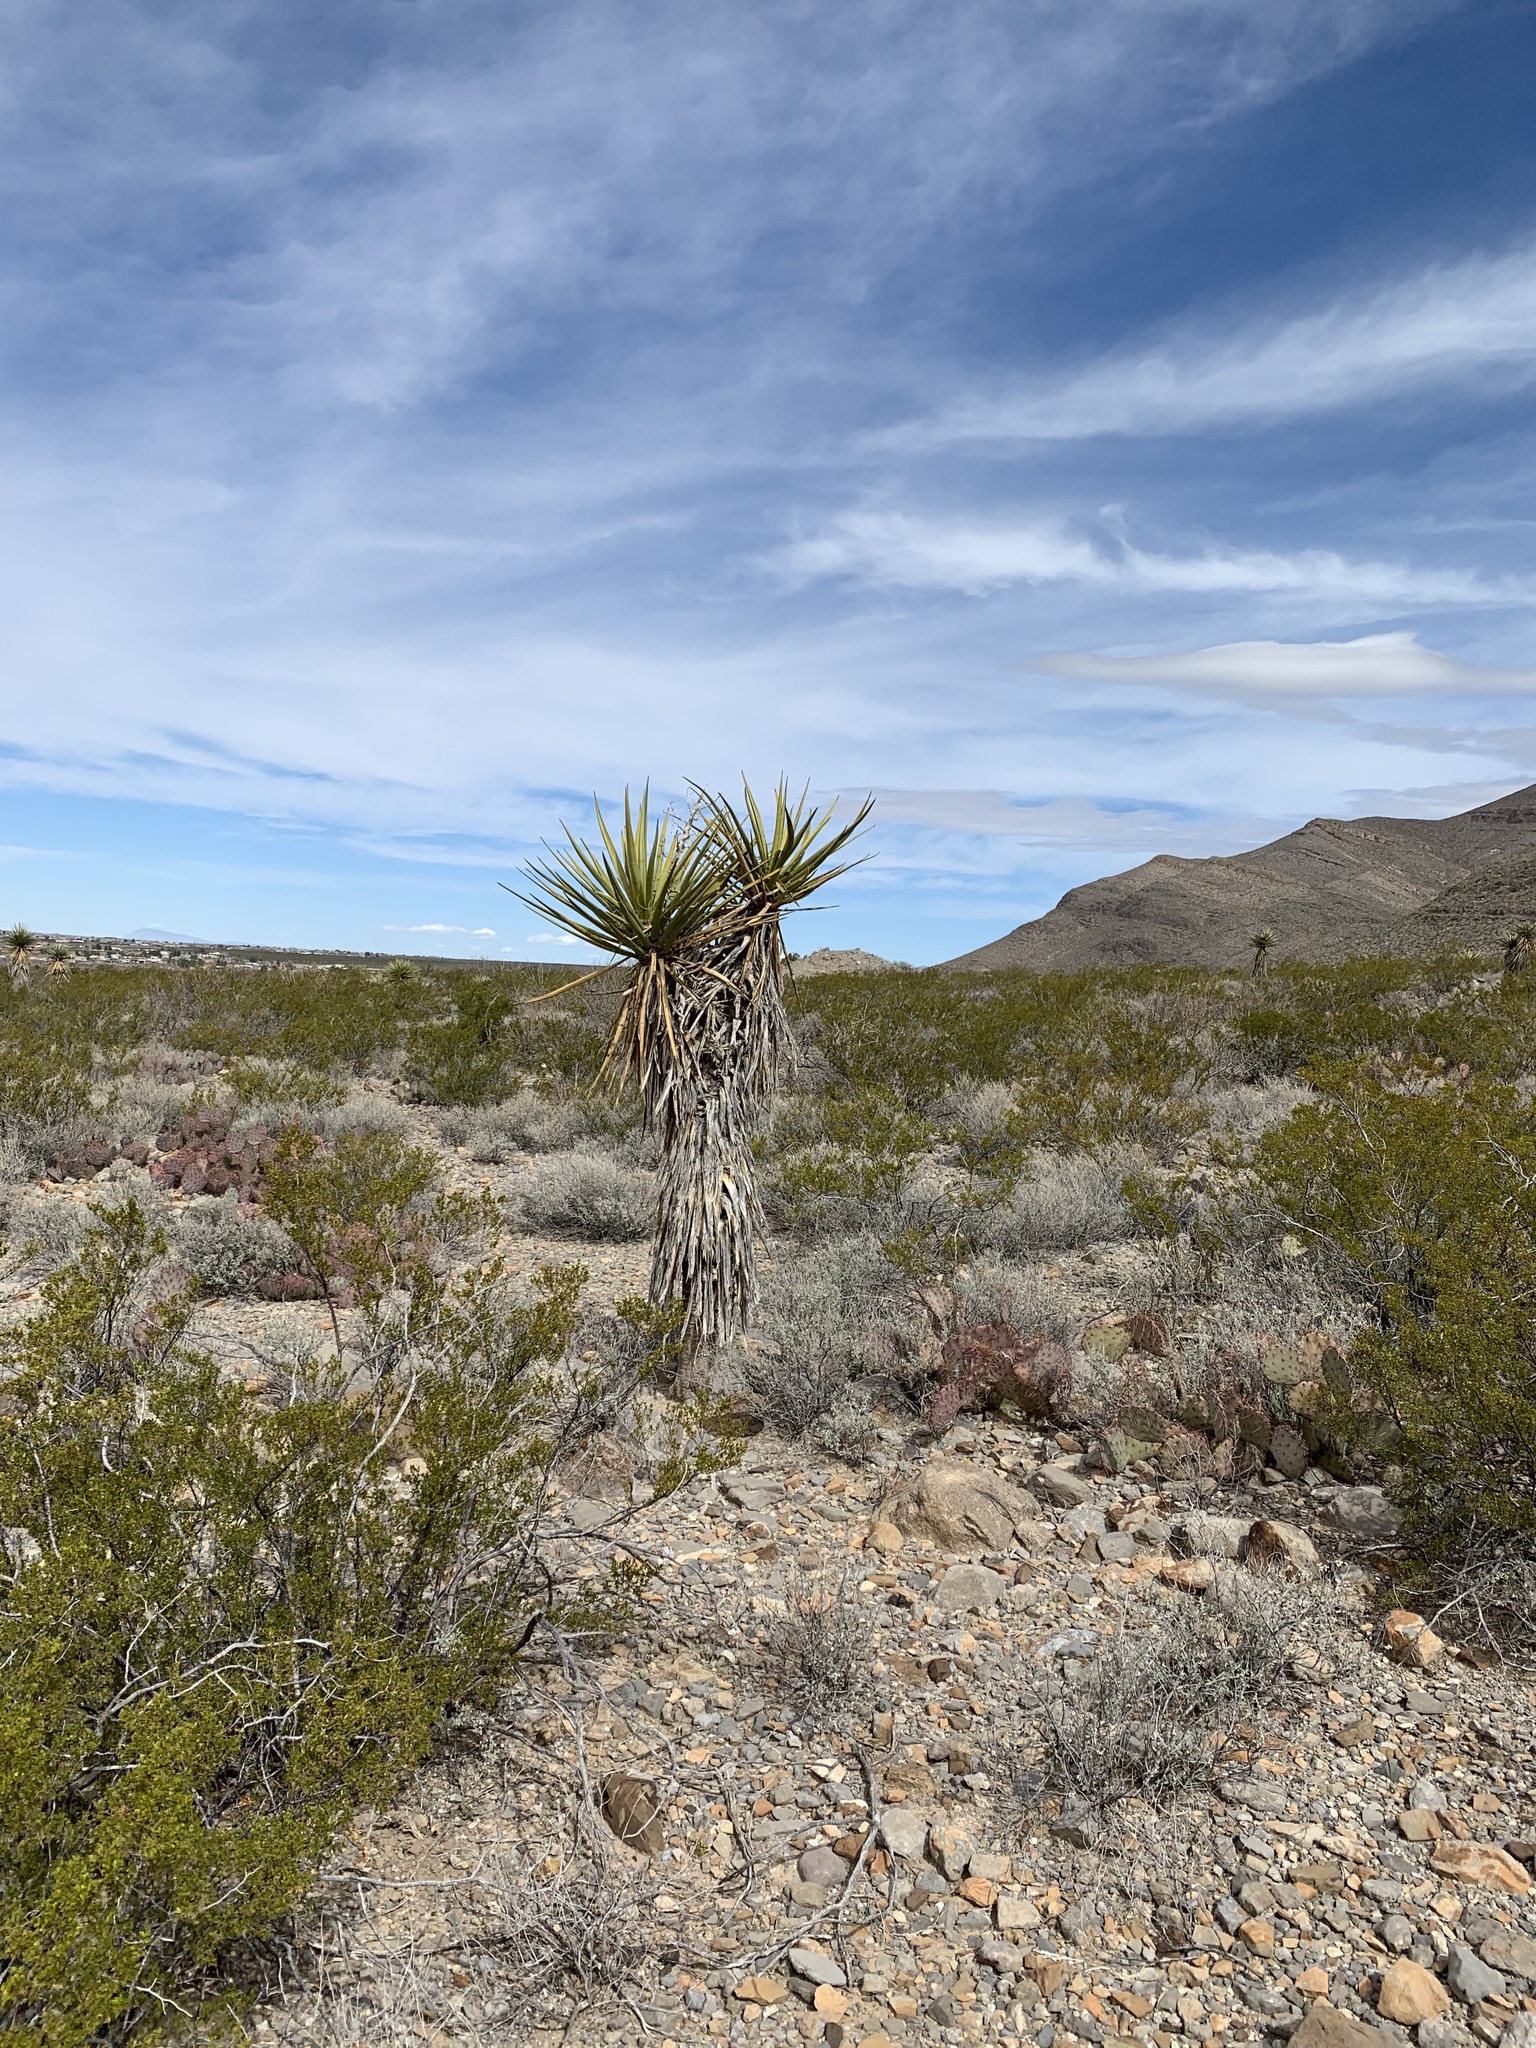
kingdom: Plantae
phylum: Tracheophyta
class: Liliopsida
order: Asparagales
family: Asparagaceae
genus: Yucca
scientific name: Yucca treculiana
